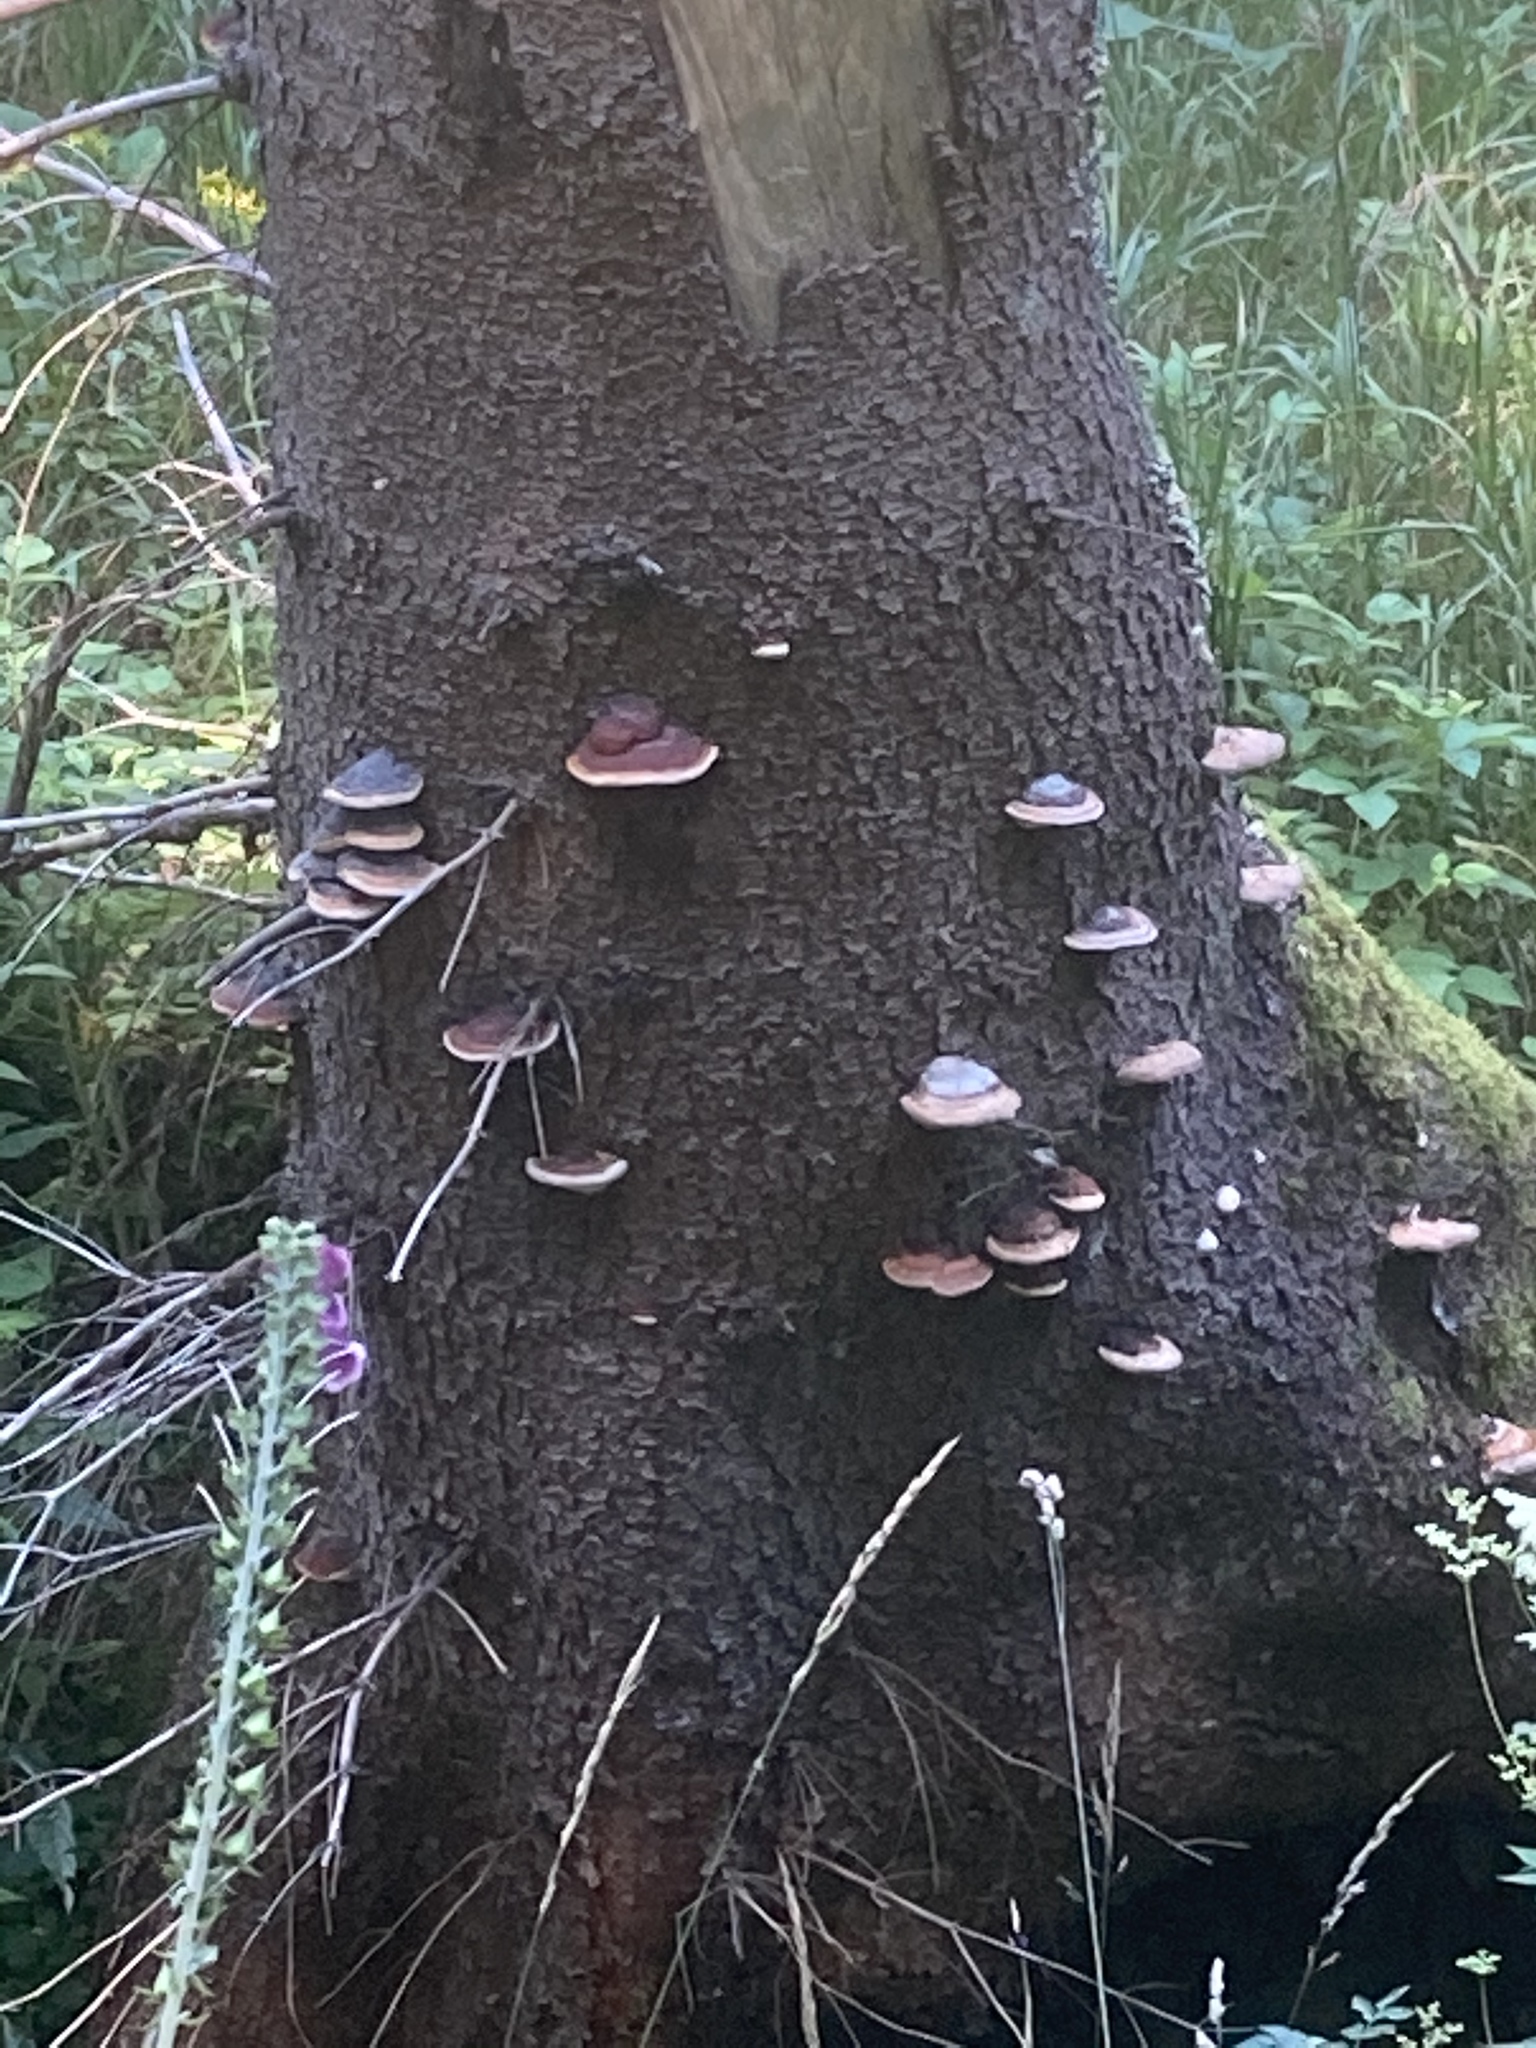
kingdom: Fungi
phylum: Basidiomycota
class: Agaricomycetes
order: Polyporales
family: Fomitopsidaceae
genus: Fomitopsis
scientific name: Fomitopsis pinicola
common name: Red-belted bracket
